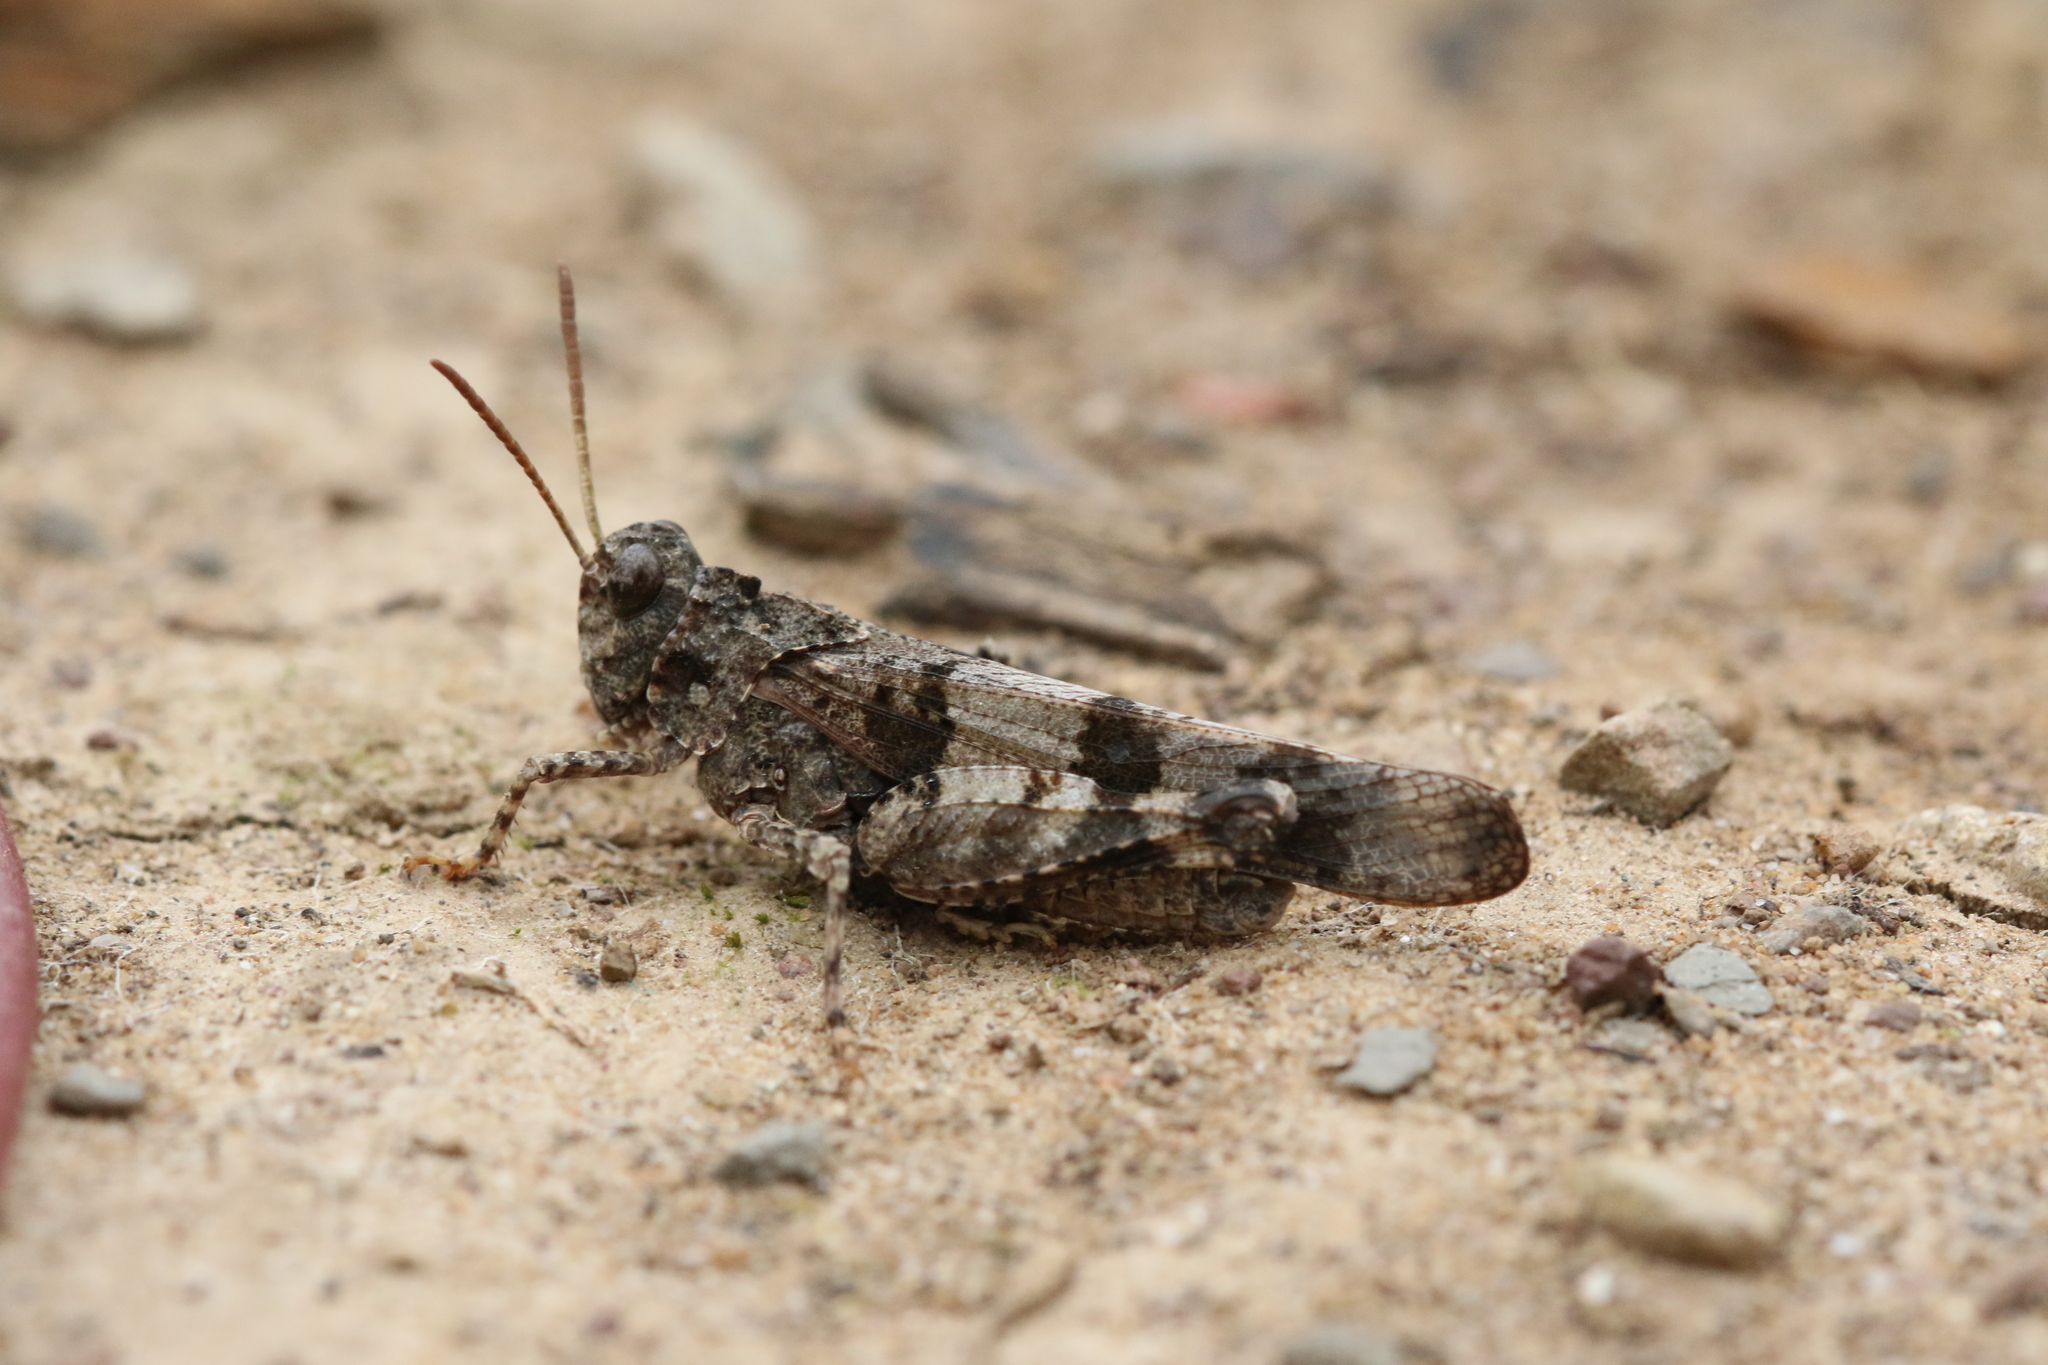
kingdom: Animalia
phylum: Arthropoda
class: Insecta
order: Orthoptera
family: Acrididae
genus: Oedipoda
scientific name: Oedipoda caerulescens
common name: Blue-winged grasshopper
